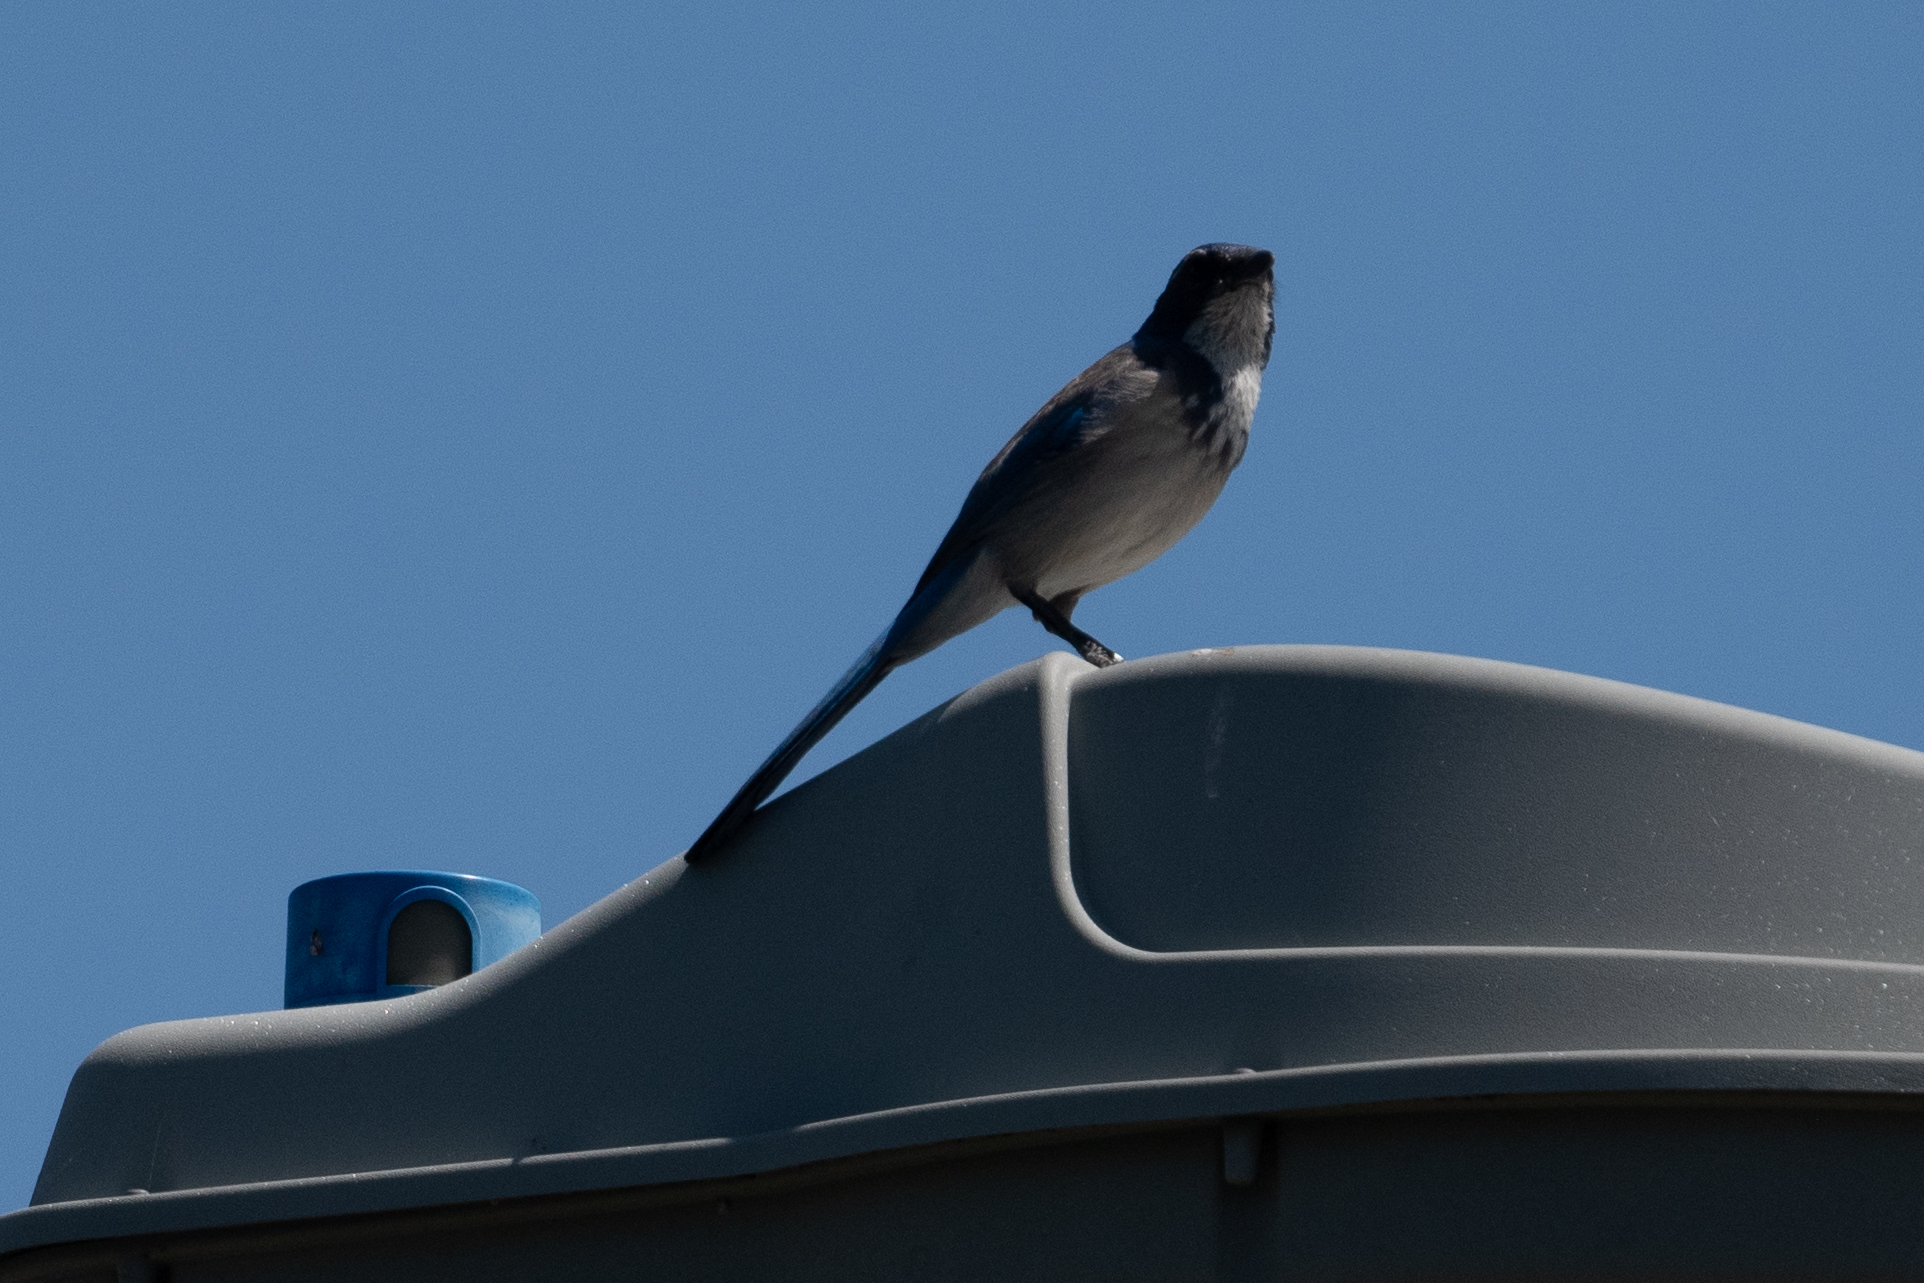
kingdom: Animalia
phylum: Chordata
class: Aves
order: Passeriformes
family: Corvidae
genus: Aphelocoma
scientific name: Aphelocoma californica
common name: California scrub-jay
